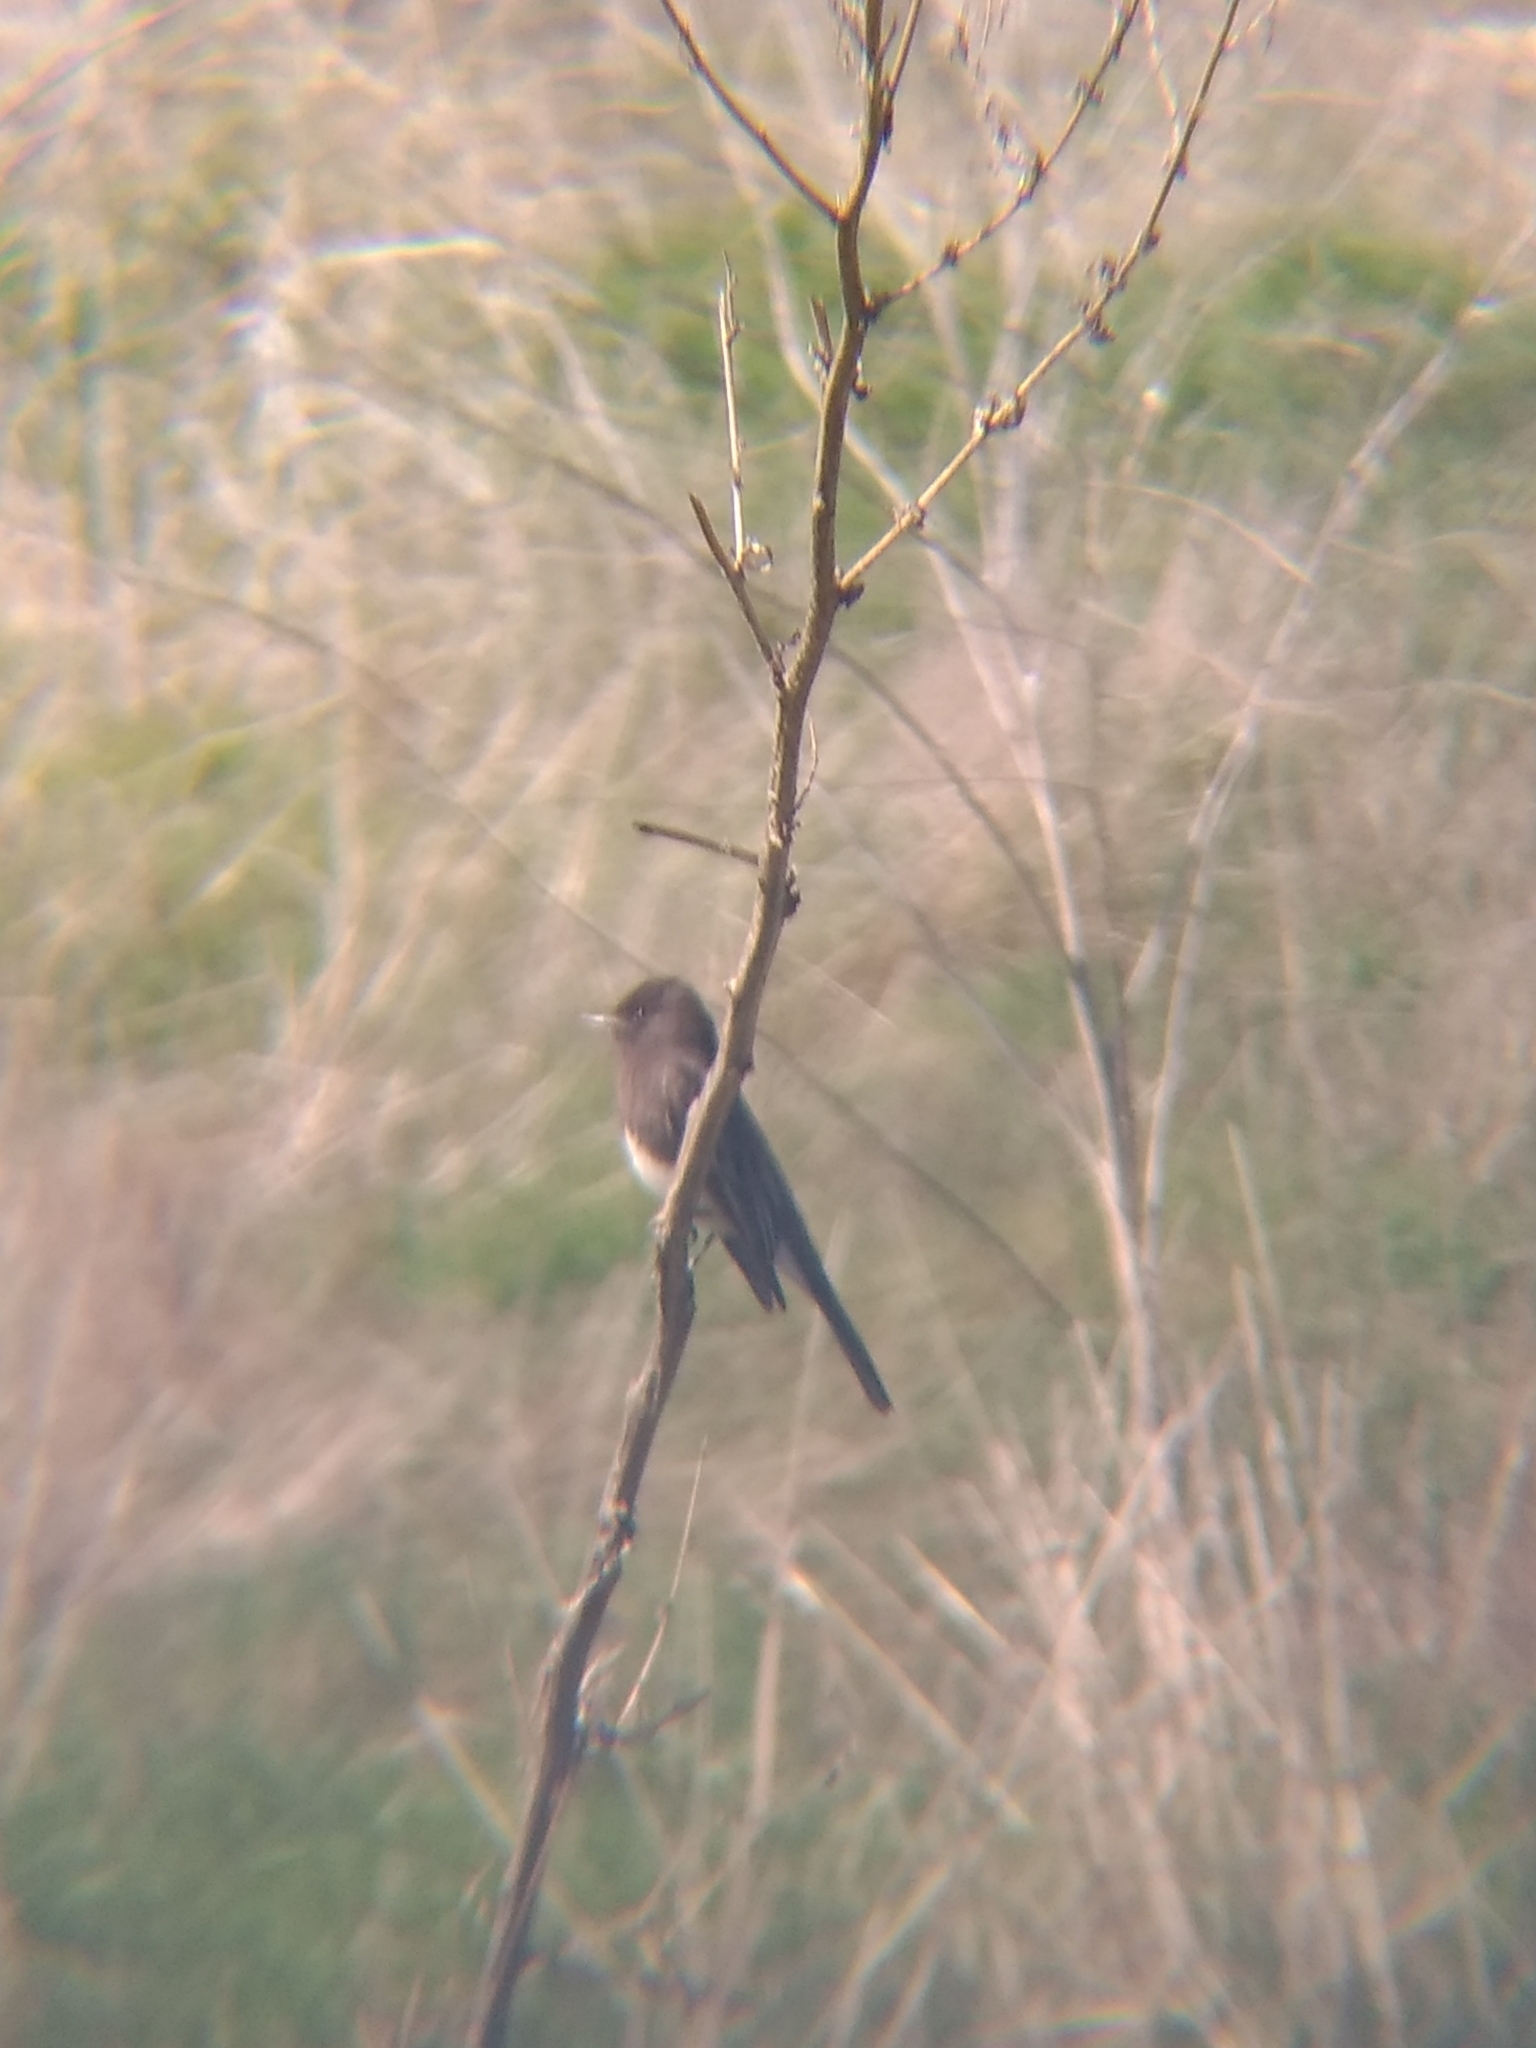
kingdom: Animalia
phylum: Chordata
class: Aves
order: Passeriformes
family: Tyrannidae
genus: Sayornis
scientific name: Sayornis nigricans
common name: Black phoebe
